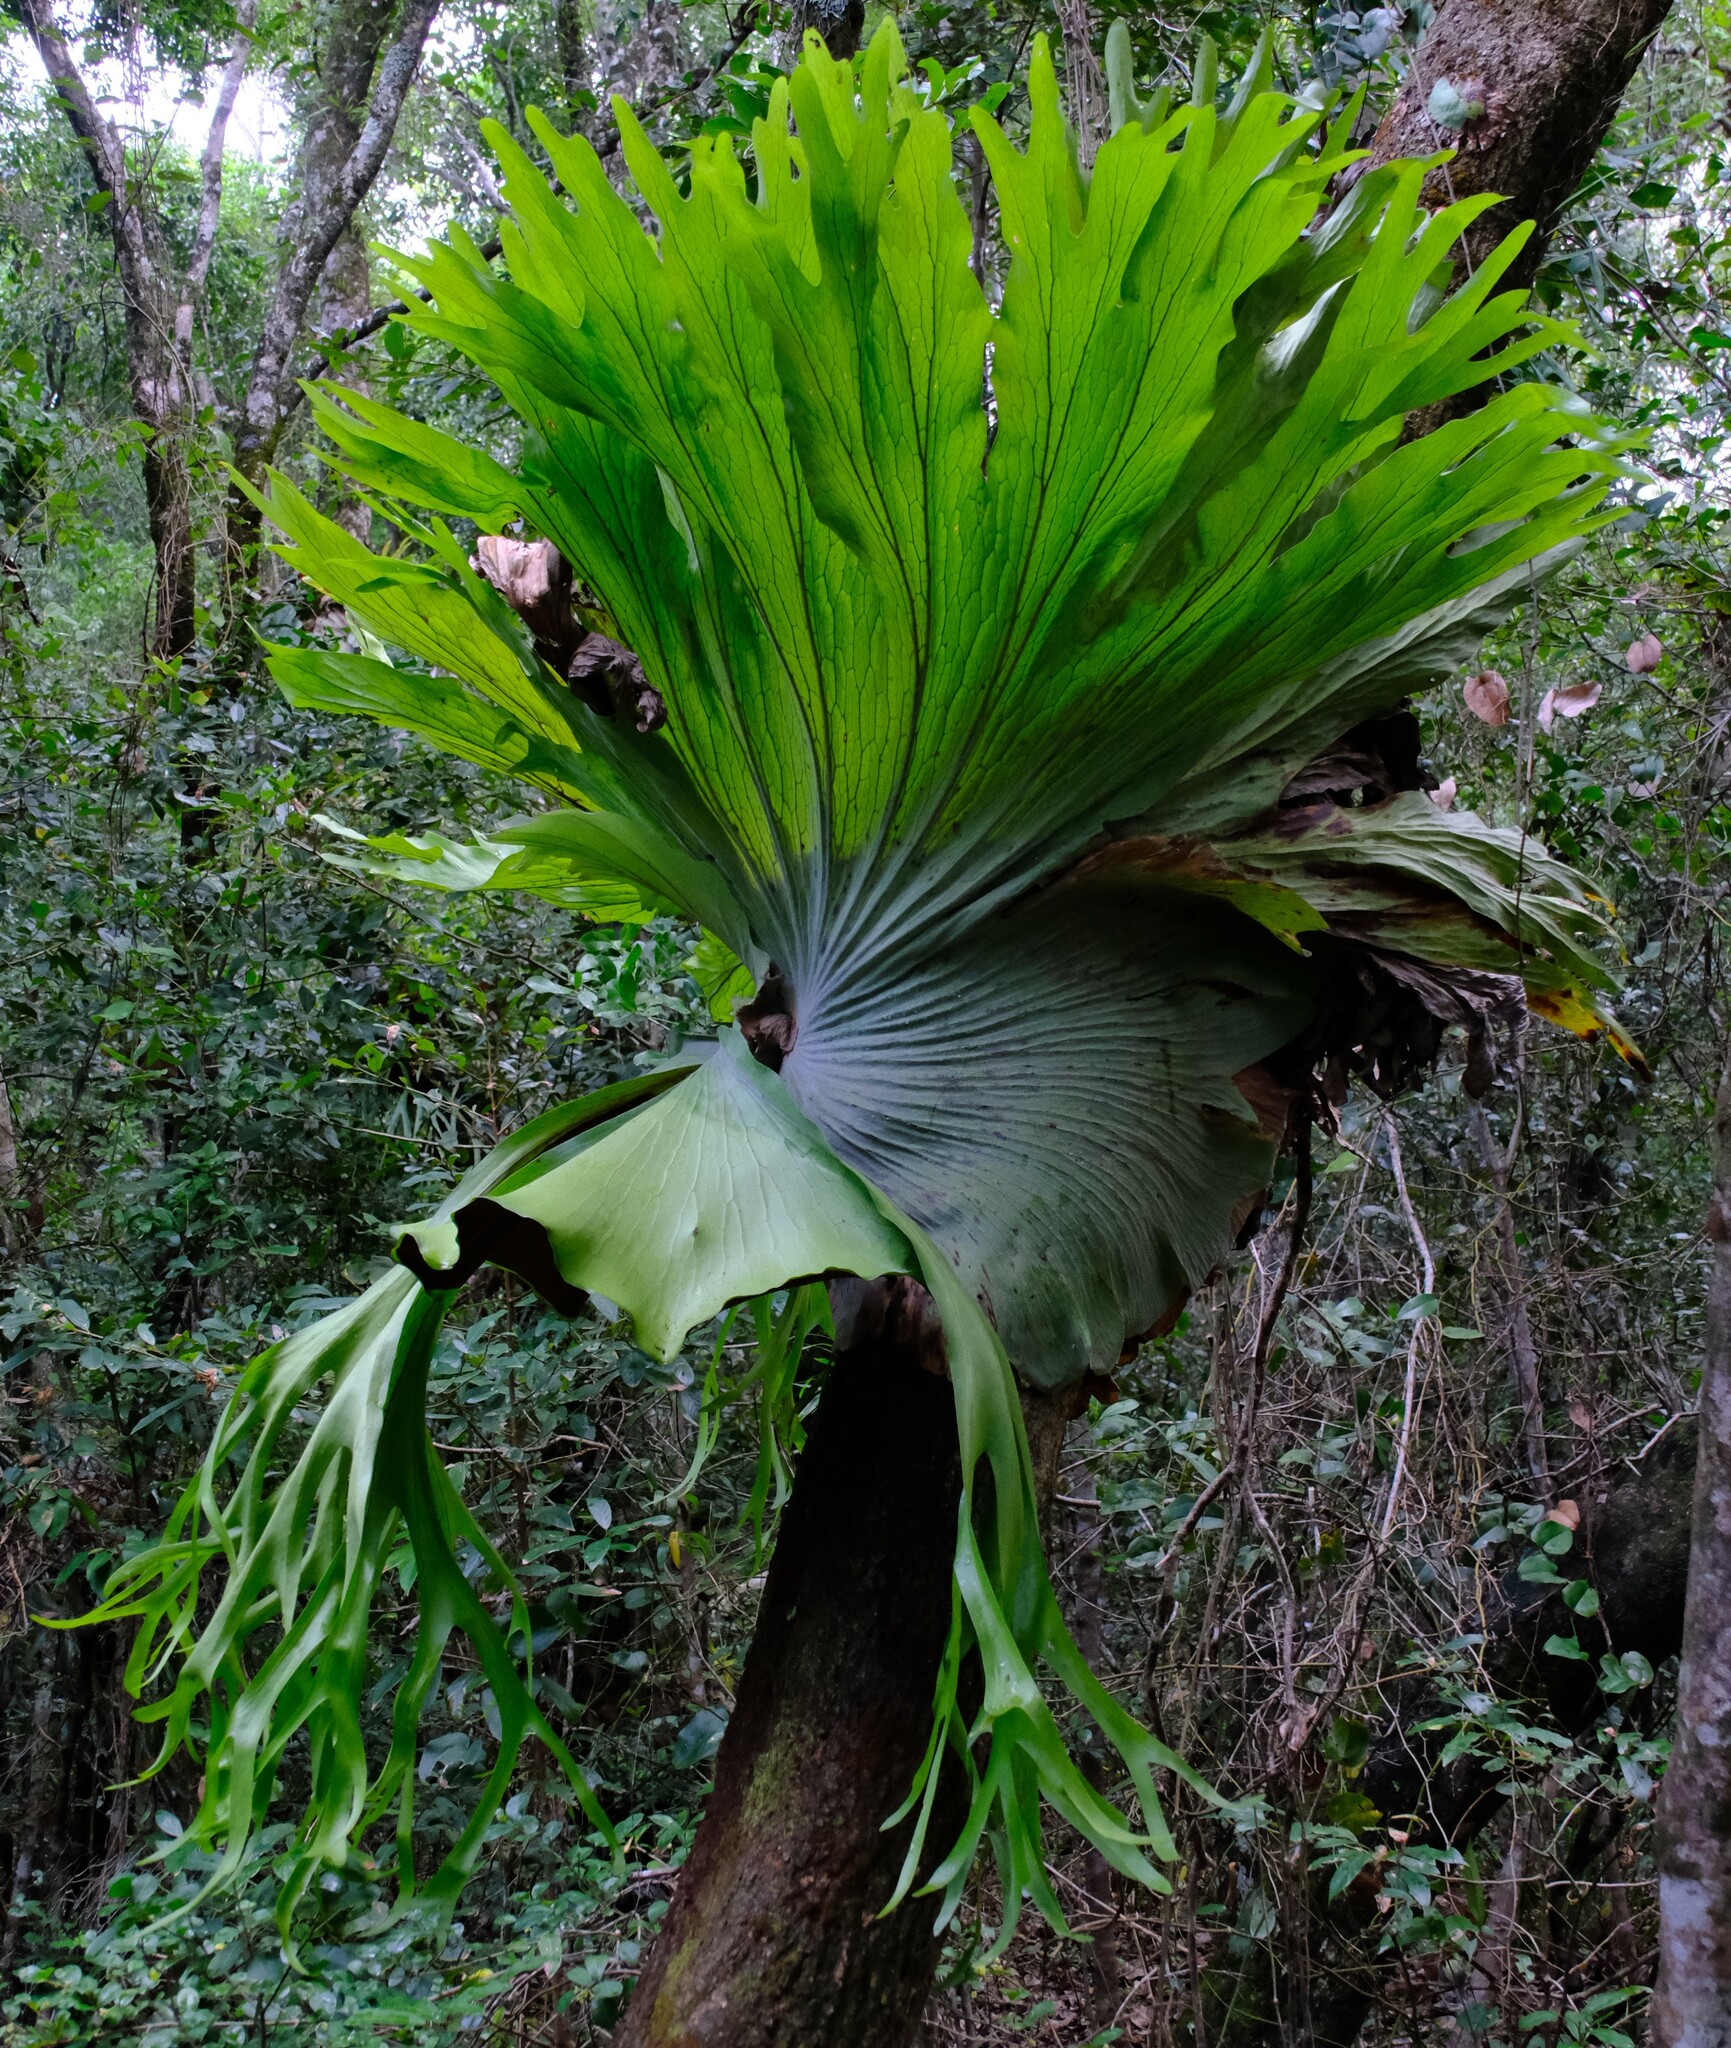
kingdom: Plantae
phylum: Tracheophyta
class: Polypodiopsida
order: Polypodiales
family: Polypodiaceae
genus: Platycerium
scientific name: Platycerium superbum
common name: Staghorn fern
